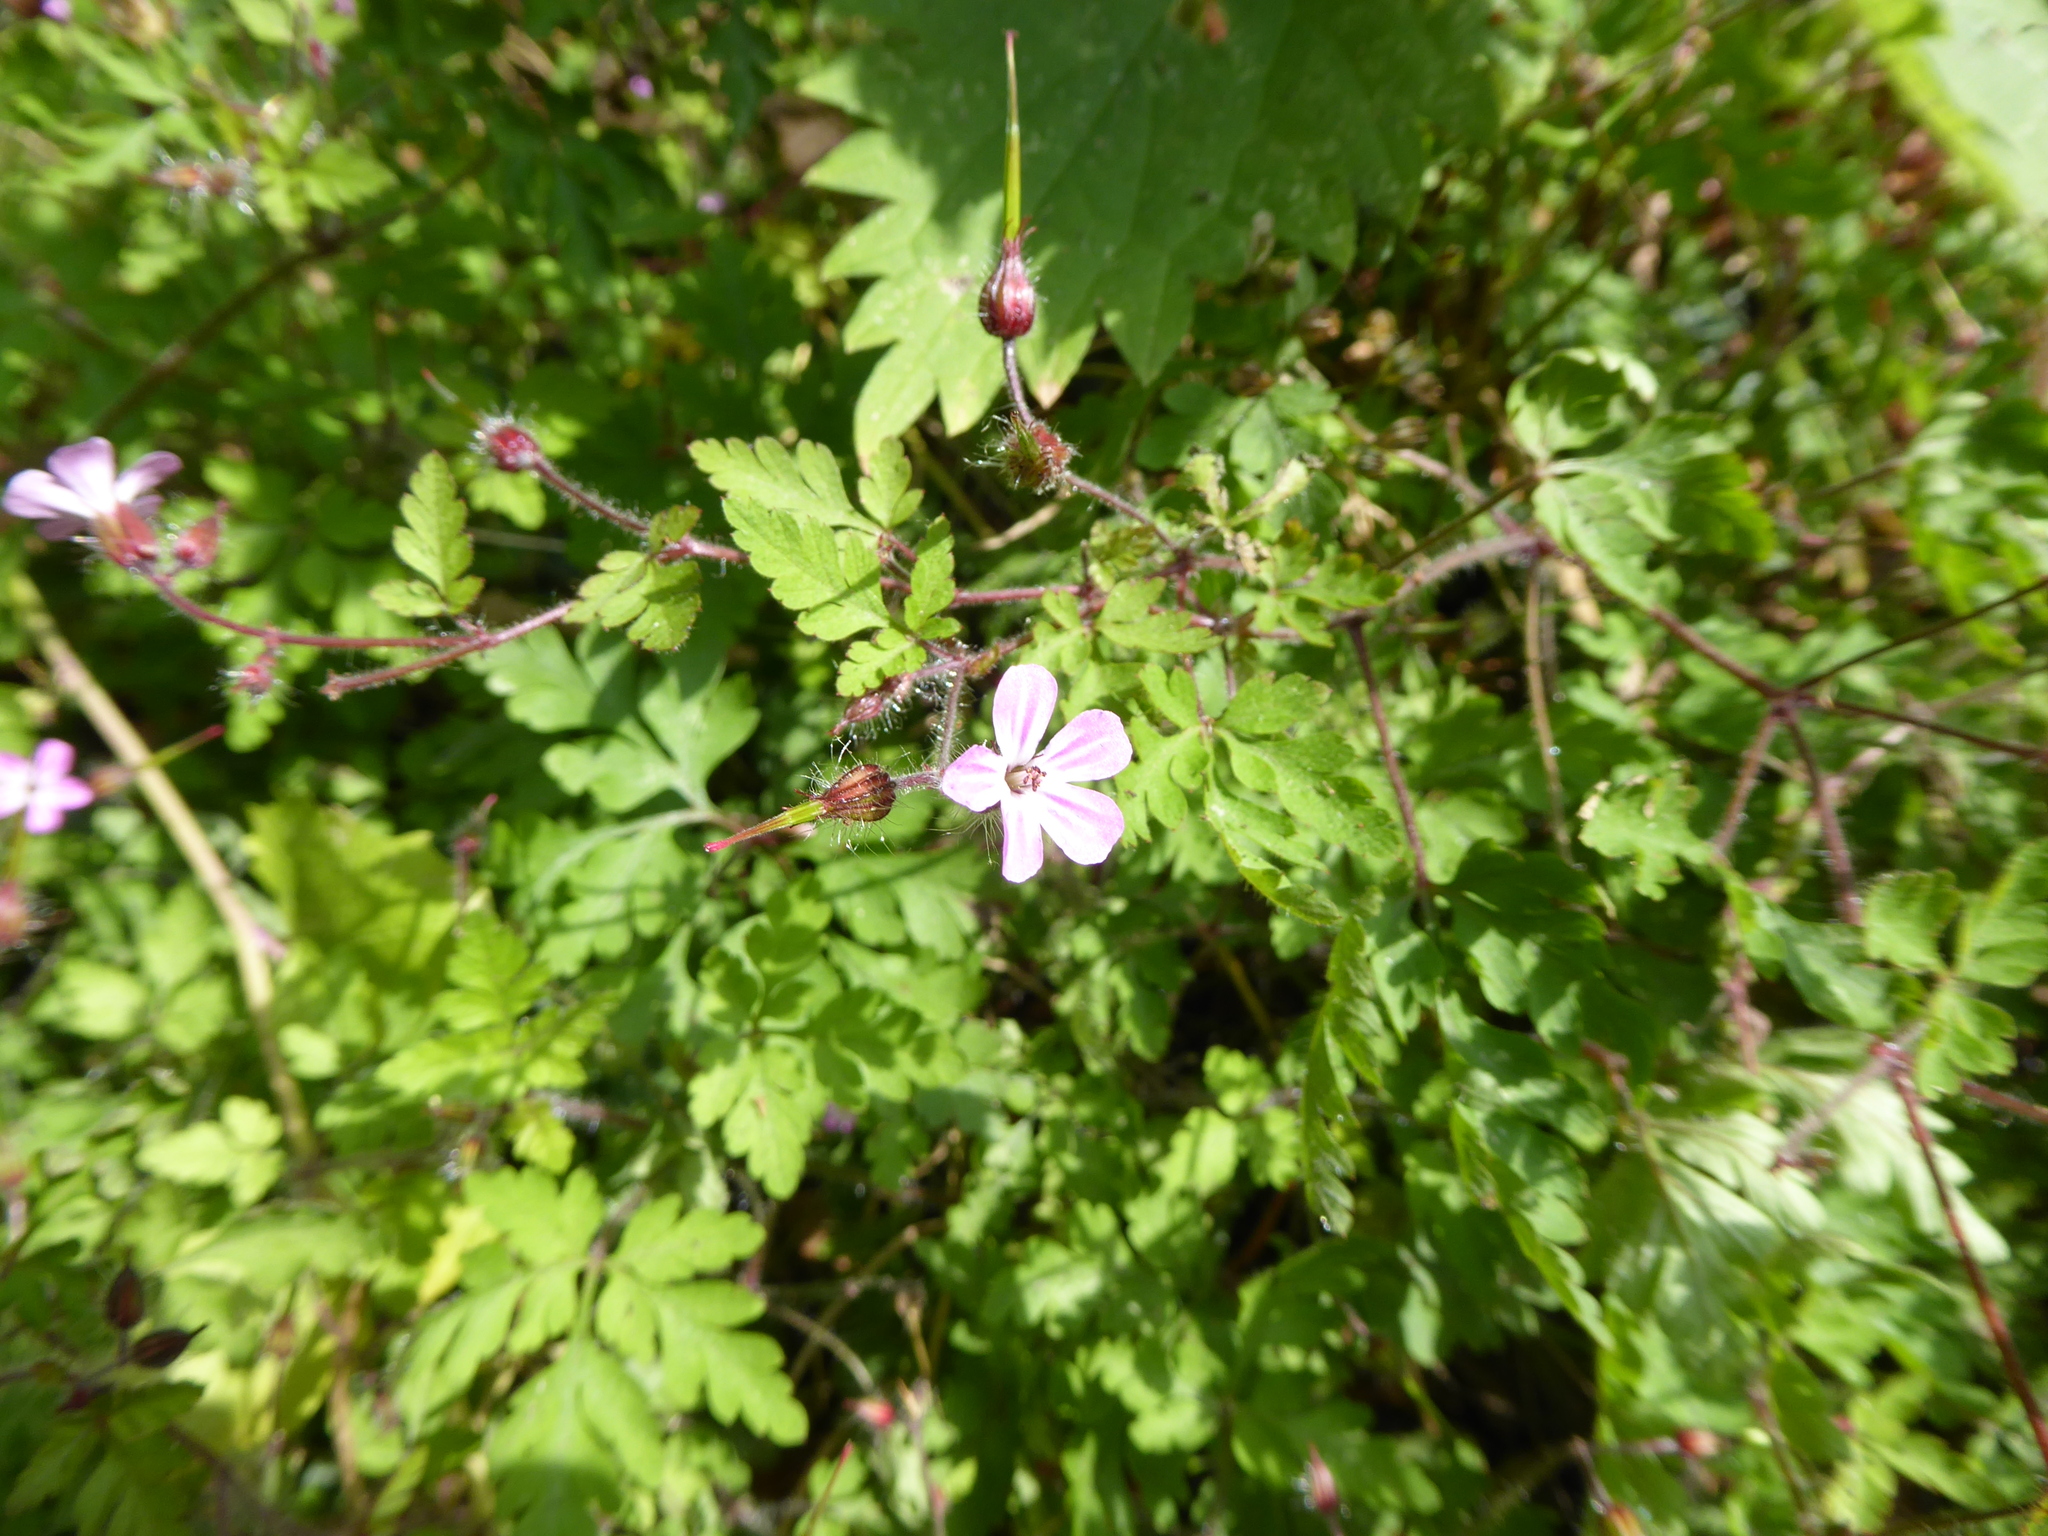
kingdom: Plantae
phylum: Tracheophyta
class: Magnoliopsida
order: Geraniales
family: Geraniaceae
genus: Geranium
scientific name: Geranium robertianum
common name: Herb-robert
